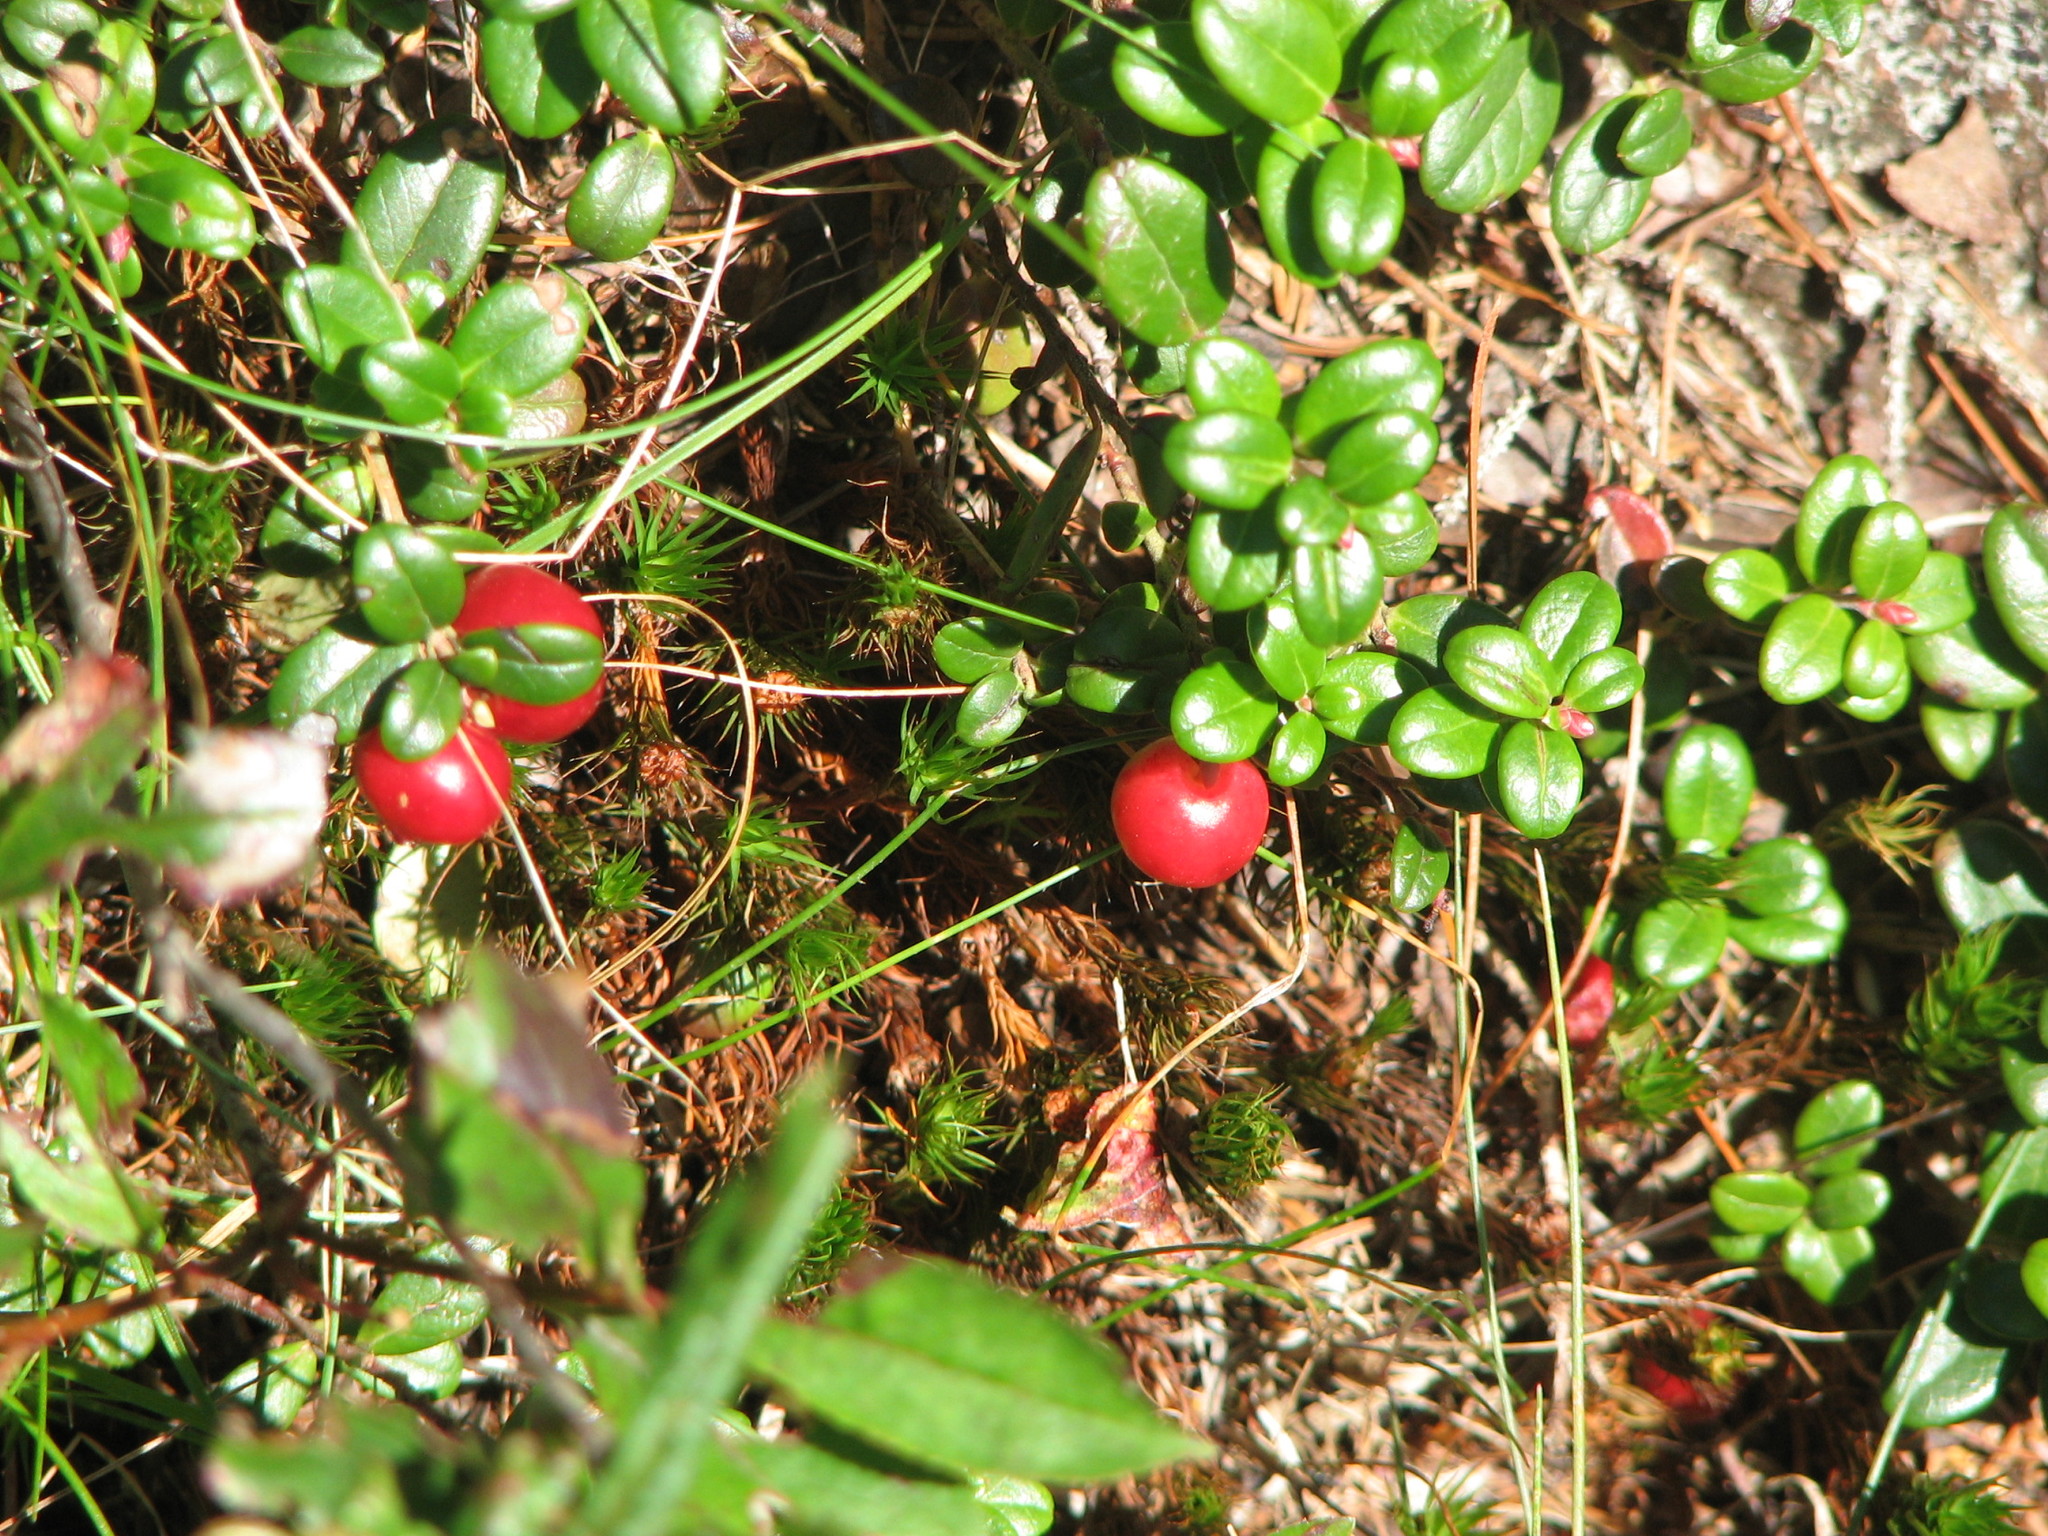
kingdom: Plantae
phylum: Tracheophyta
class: Magnoliopsida
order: Ericales
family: Ericaceae
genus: Vaccinium
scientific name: Vaccinium vitis-idaea
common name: Cowberry
